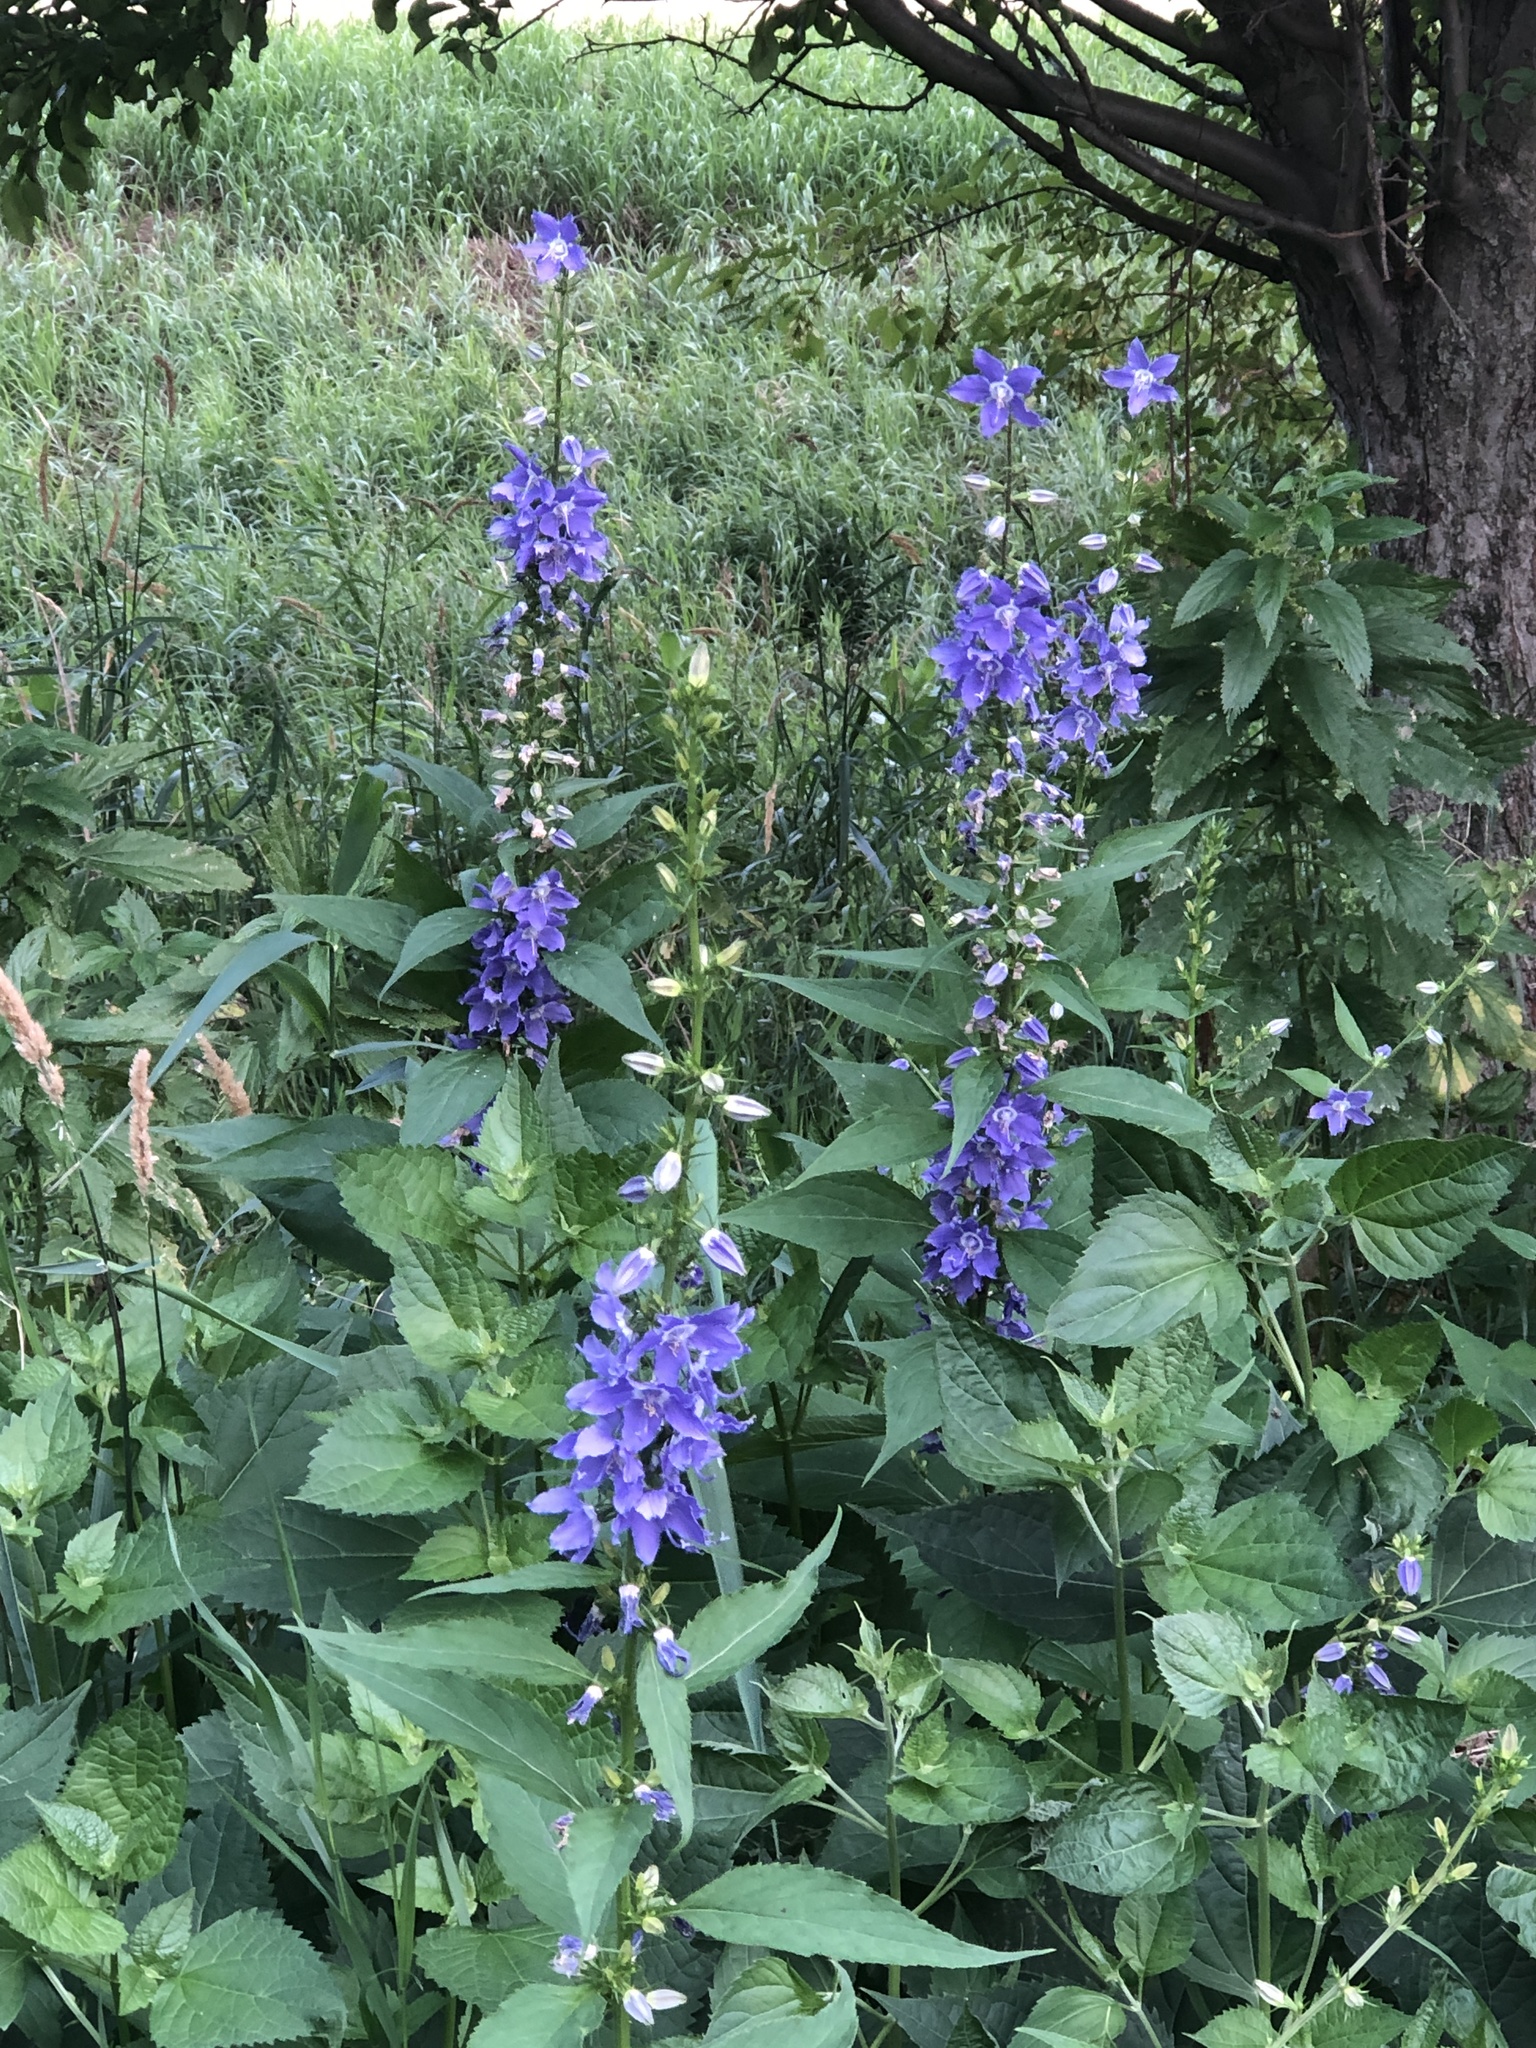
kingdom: Plantae
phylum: Tracheophyta
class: Magnoliopsida
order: Asterales
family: Campanulaceae
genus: Campanulastrum
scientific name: Campanulastrum americanum
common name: American bellflower
